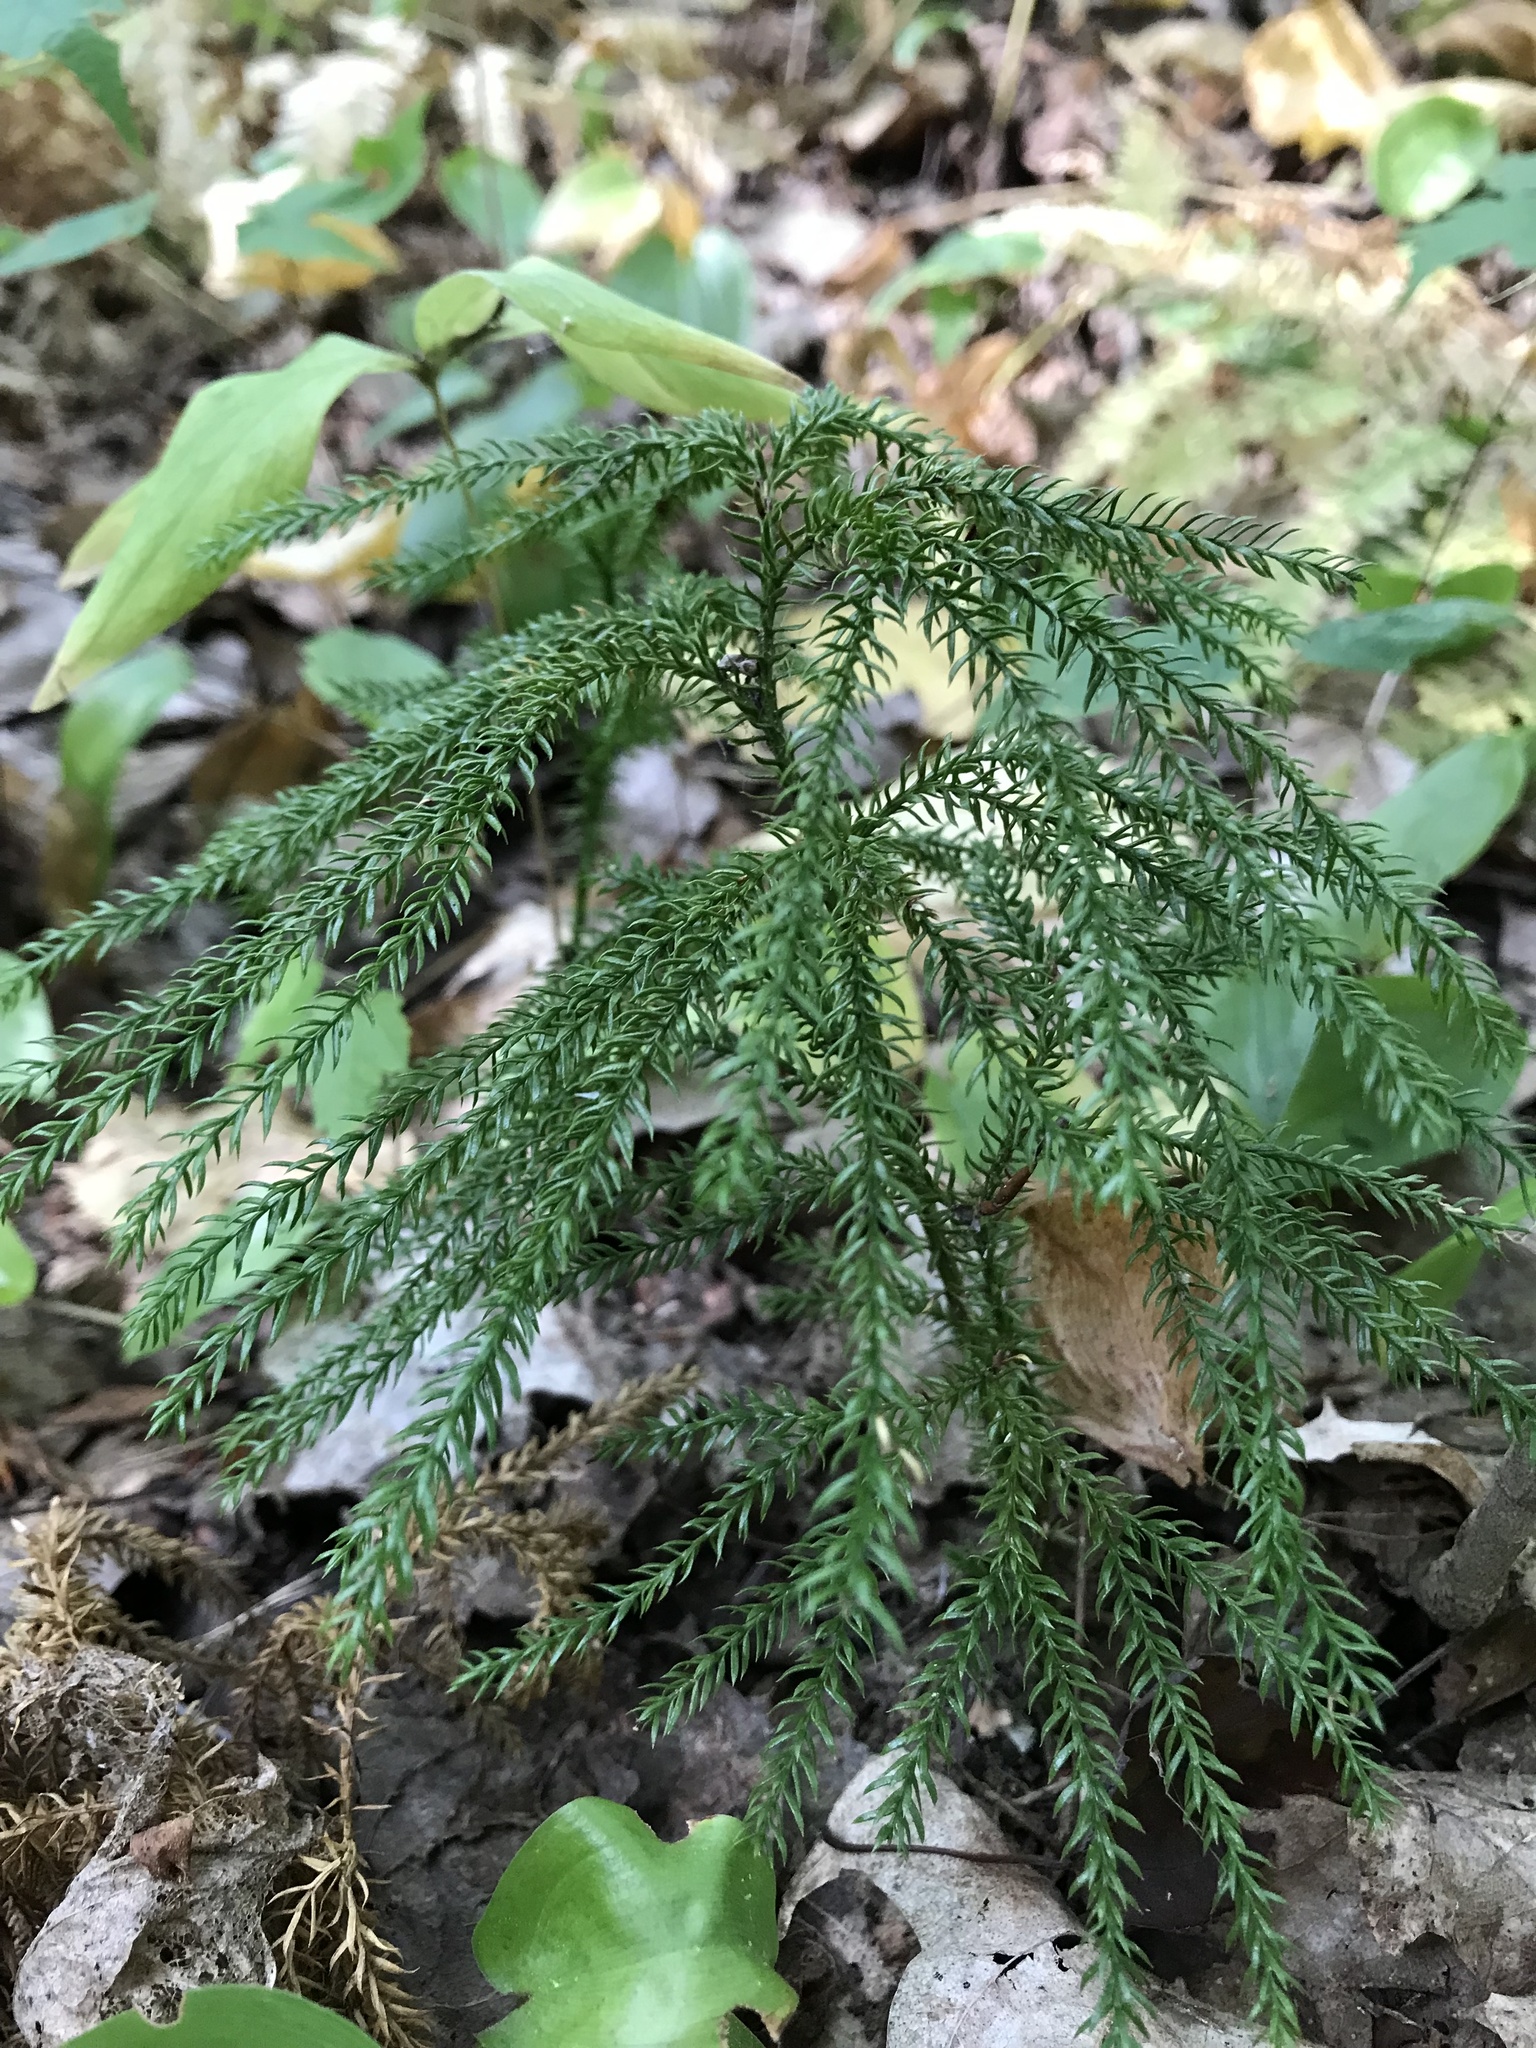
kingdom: Plantae
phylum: Tracheophyta
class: Lycopodiopsida
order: Lycopodiales
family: Lycopodiaceae
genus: Dendrolycopodium
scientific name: Dendrolycopodium dendroideum
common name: Northern tree-clubmoss
